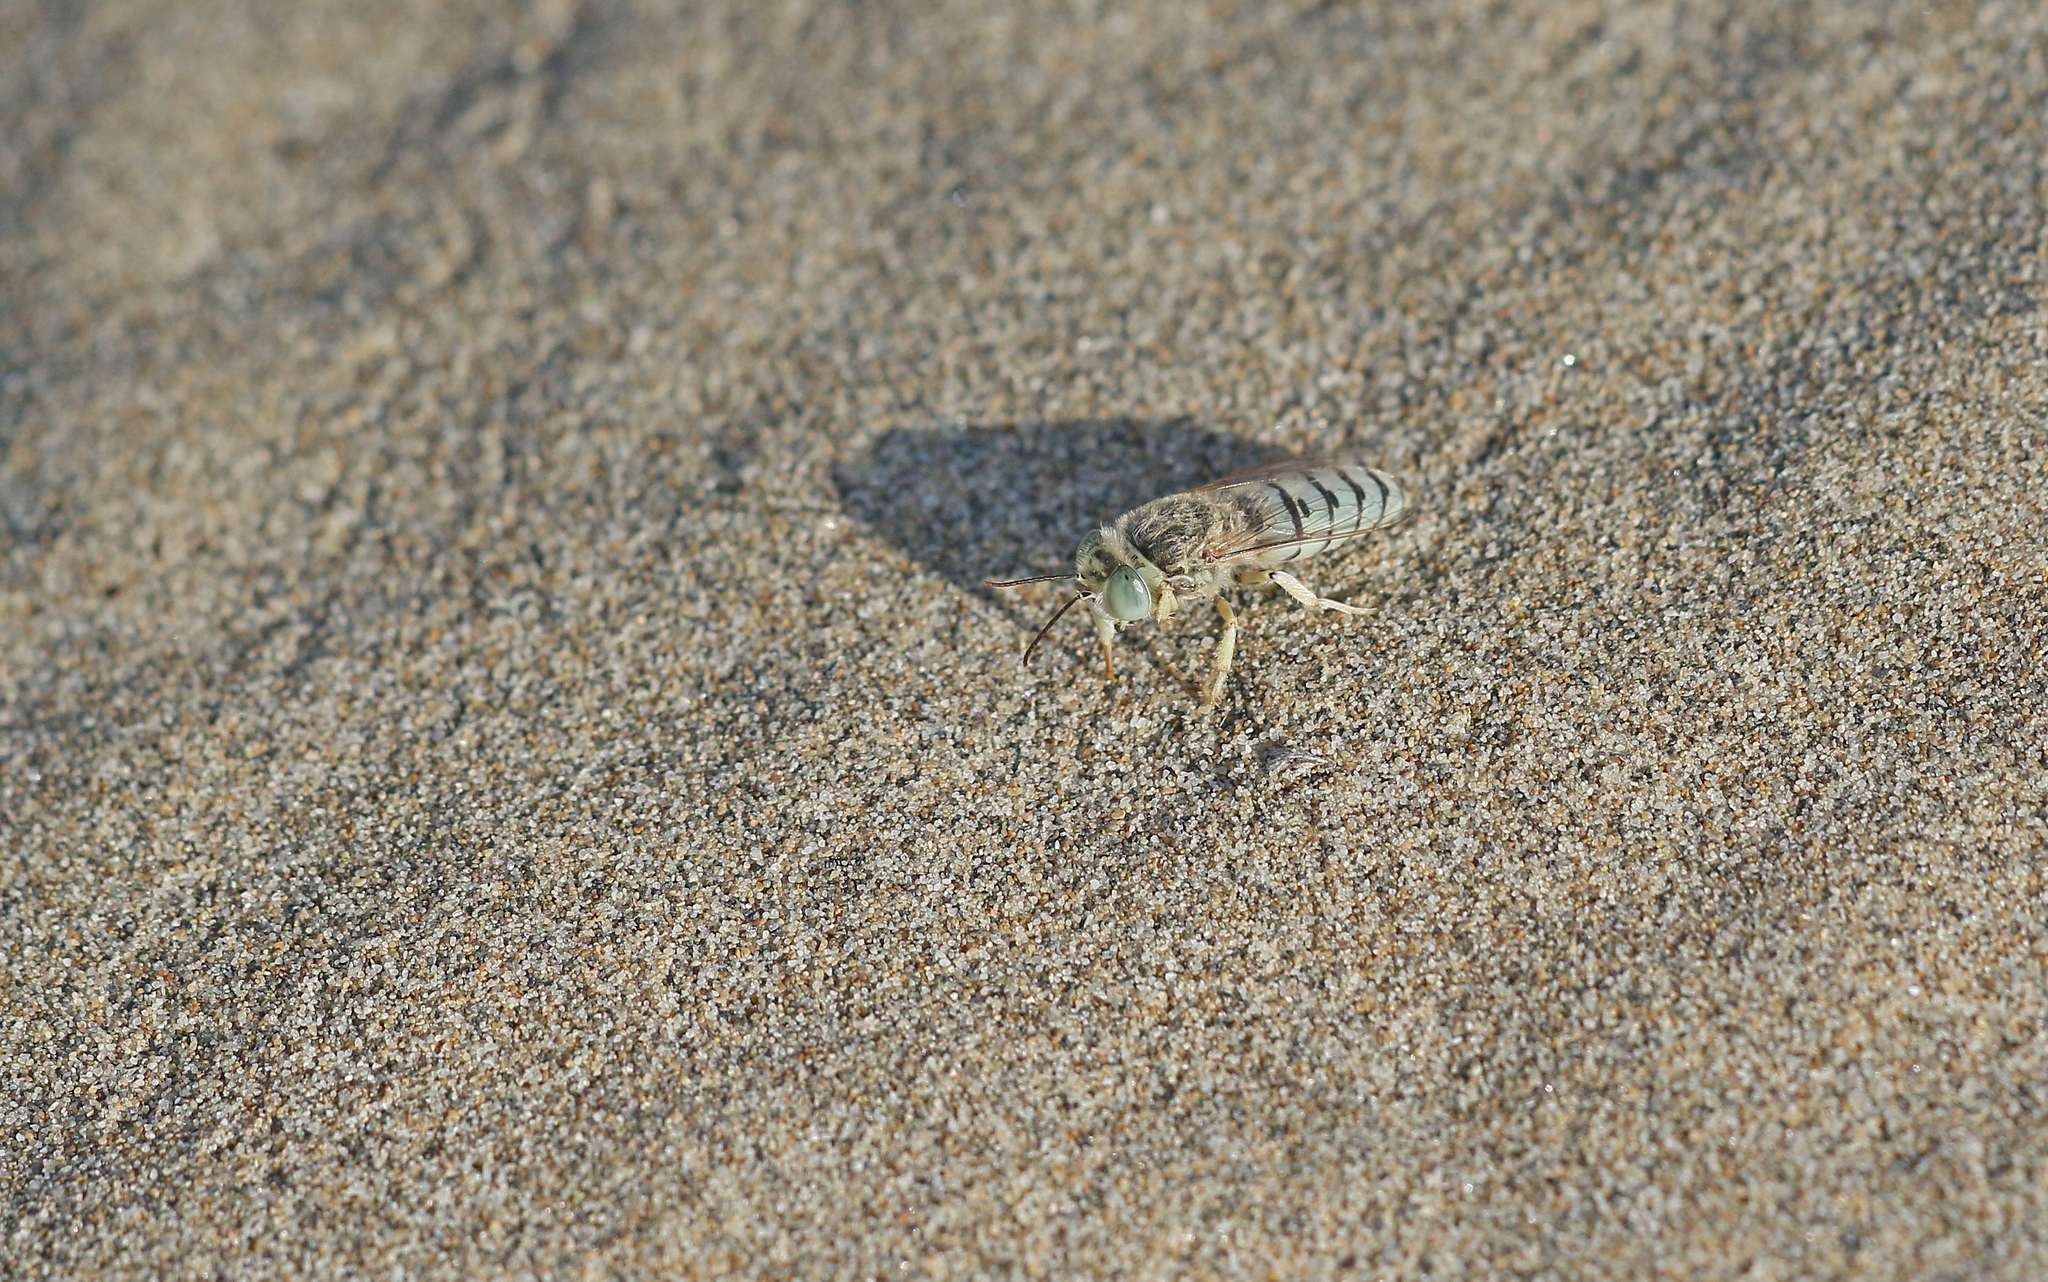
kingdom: Animalia
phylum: Arthropoda
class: Insecta
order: Hymenoptera
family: Crabronidae
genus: Bembix
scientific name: Bembix olivacea
